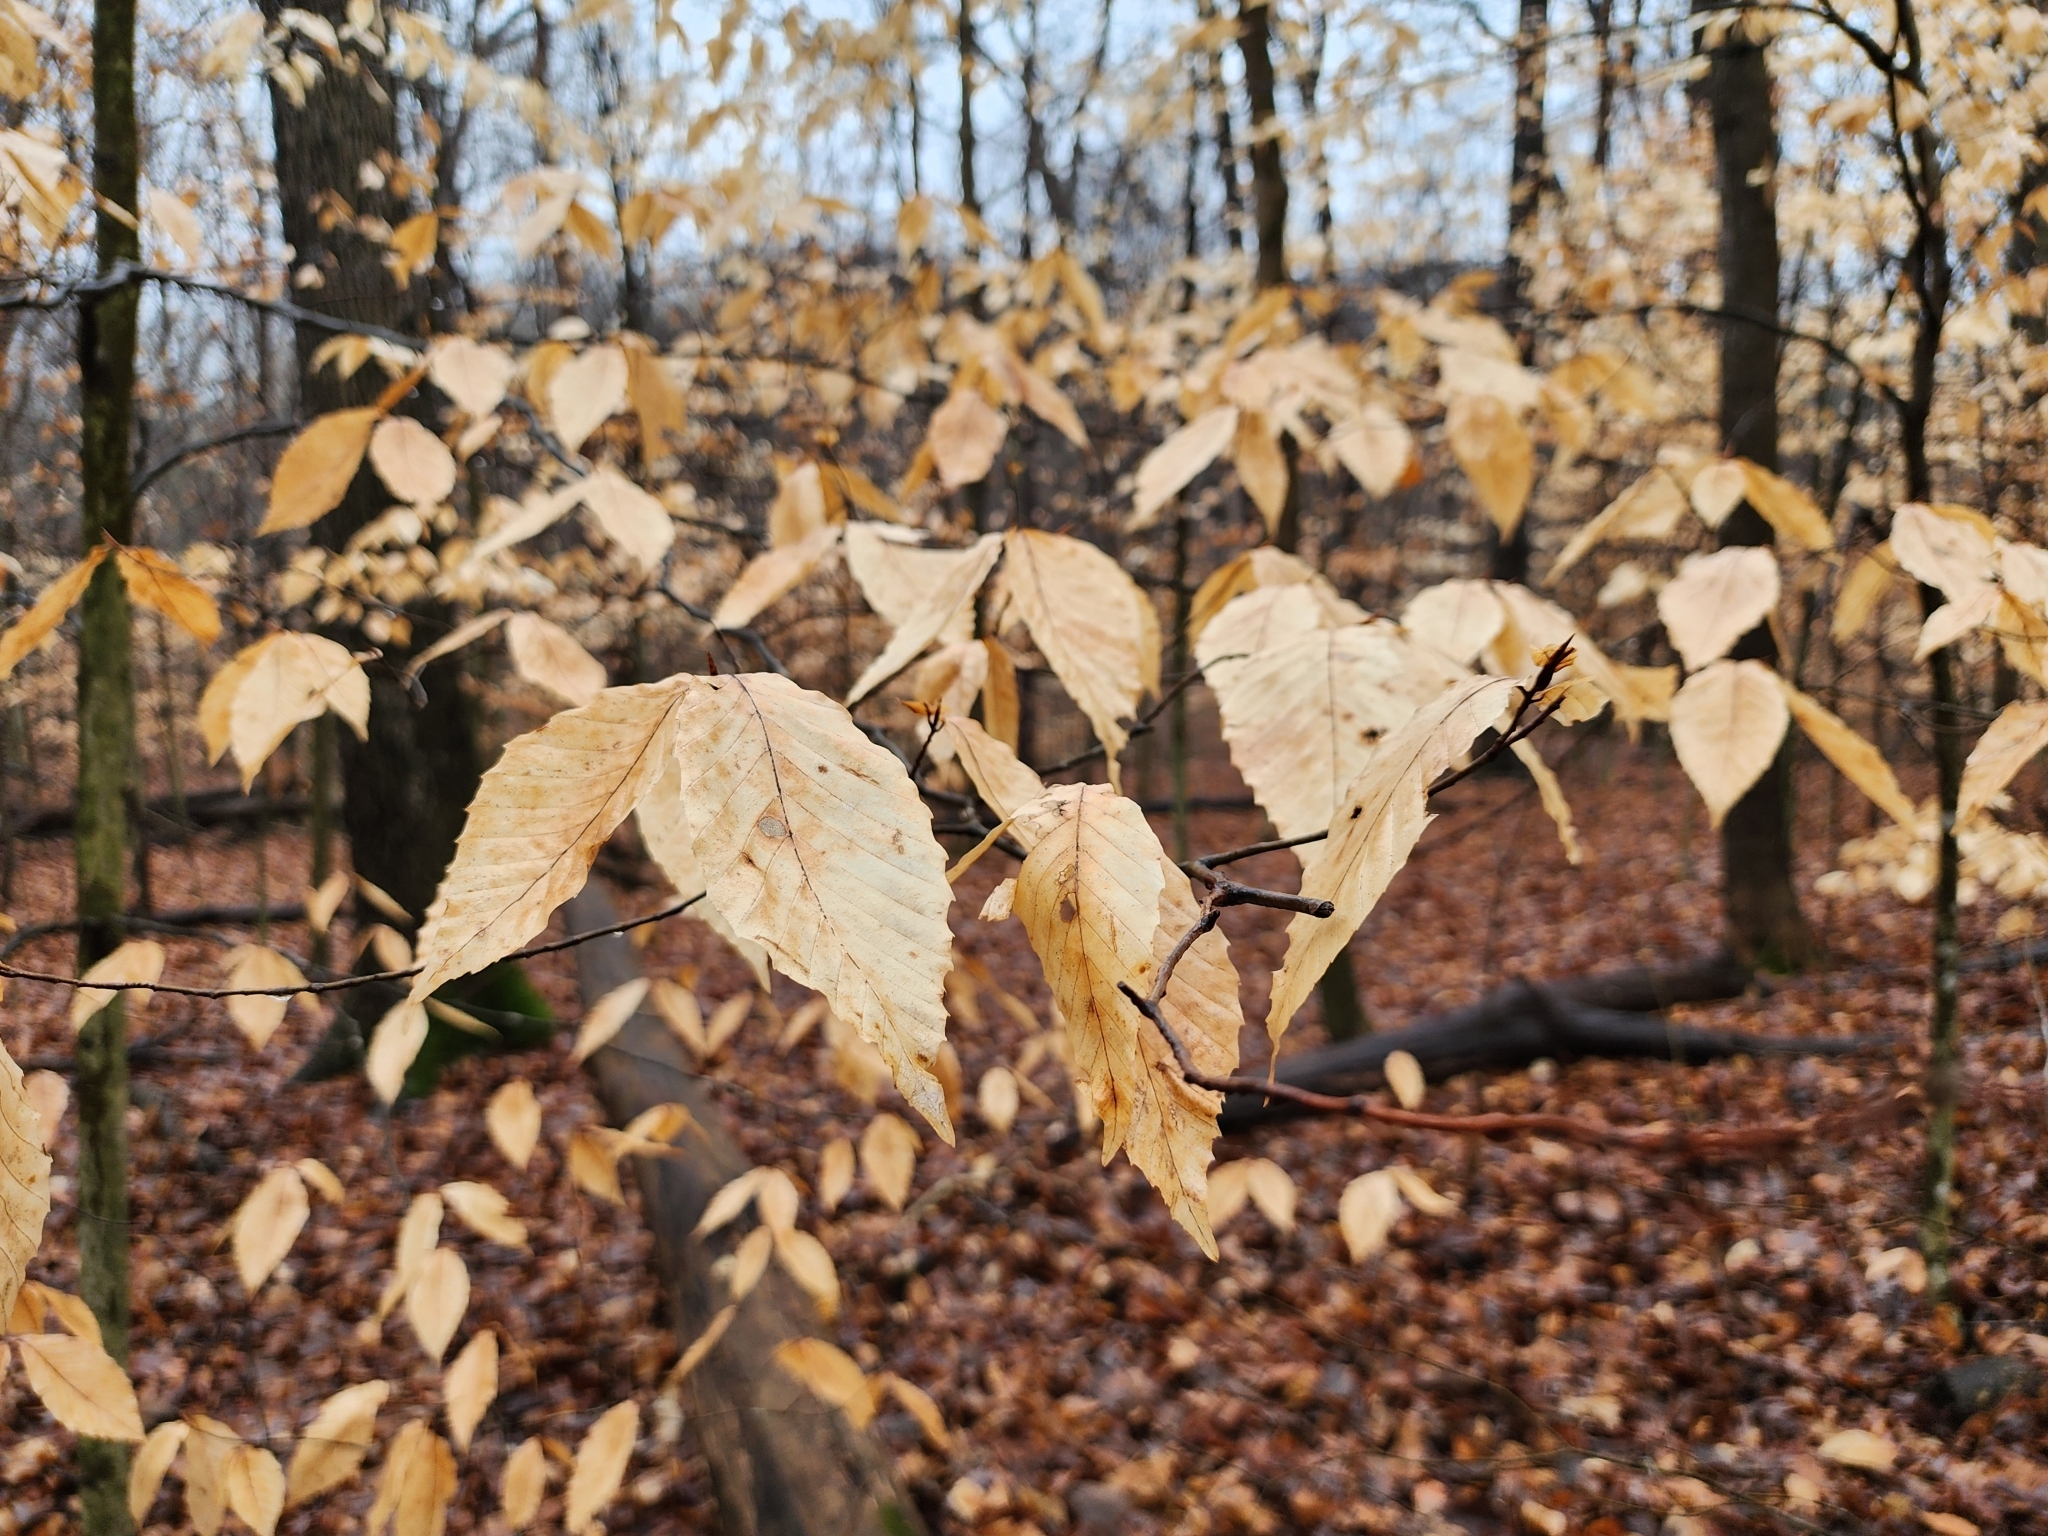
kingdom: Plantae
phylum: Tracheophyta
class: Magnoliopsida
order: Fagales
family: Fagaceae
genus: Fagus
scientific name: Fagus grandifolia
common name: American beech
